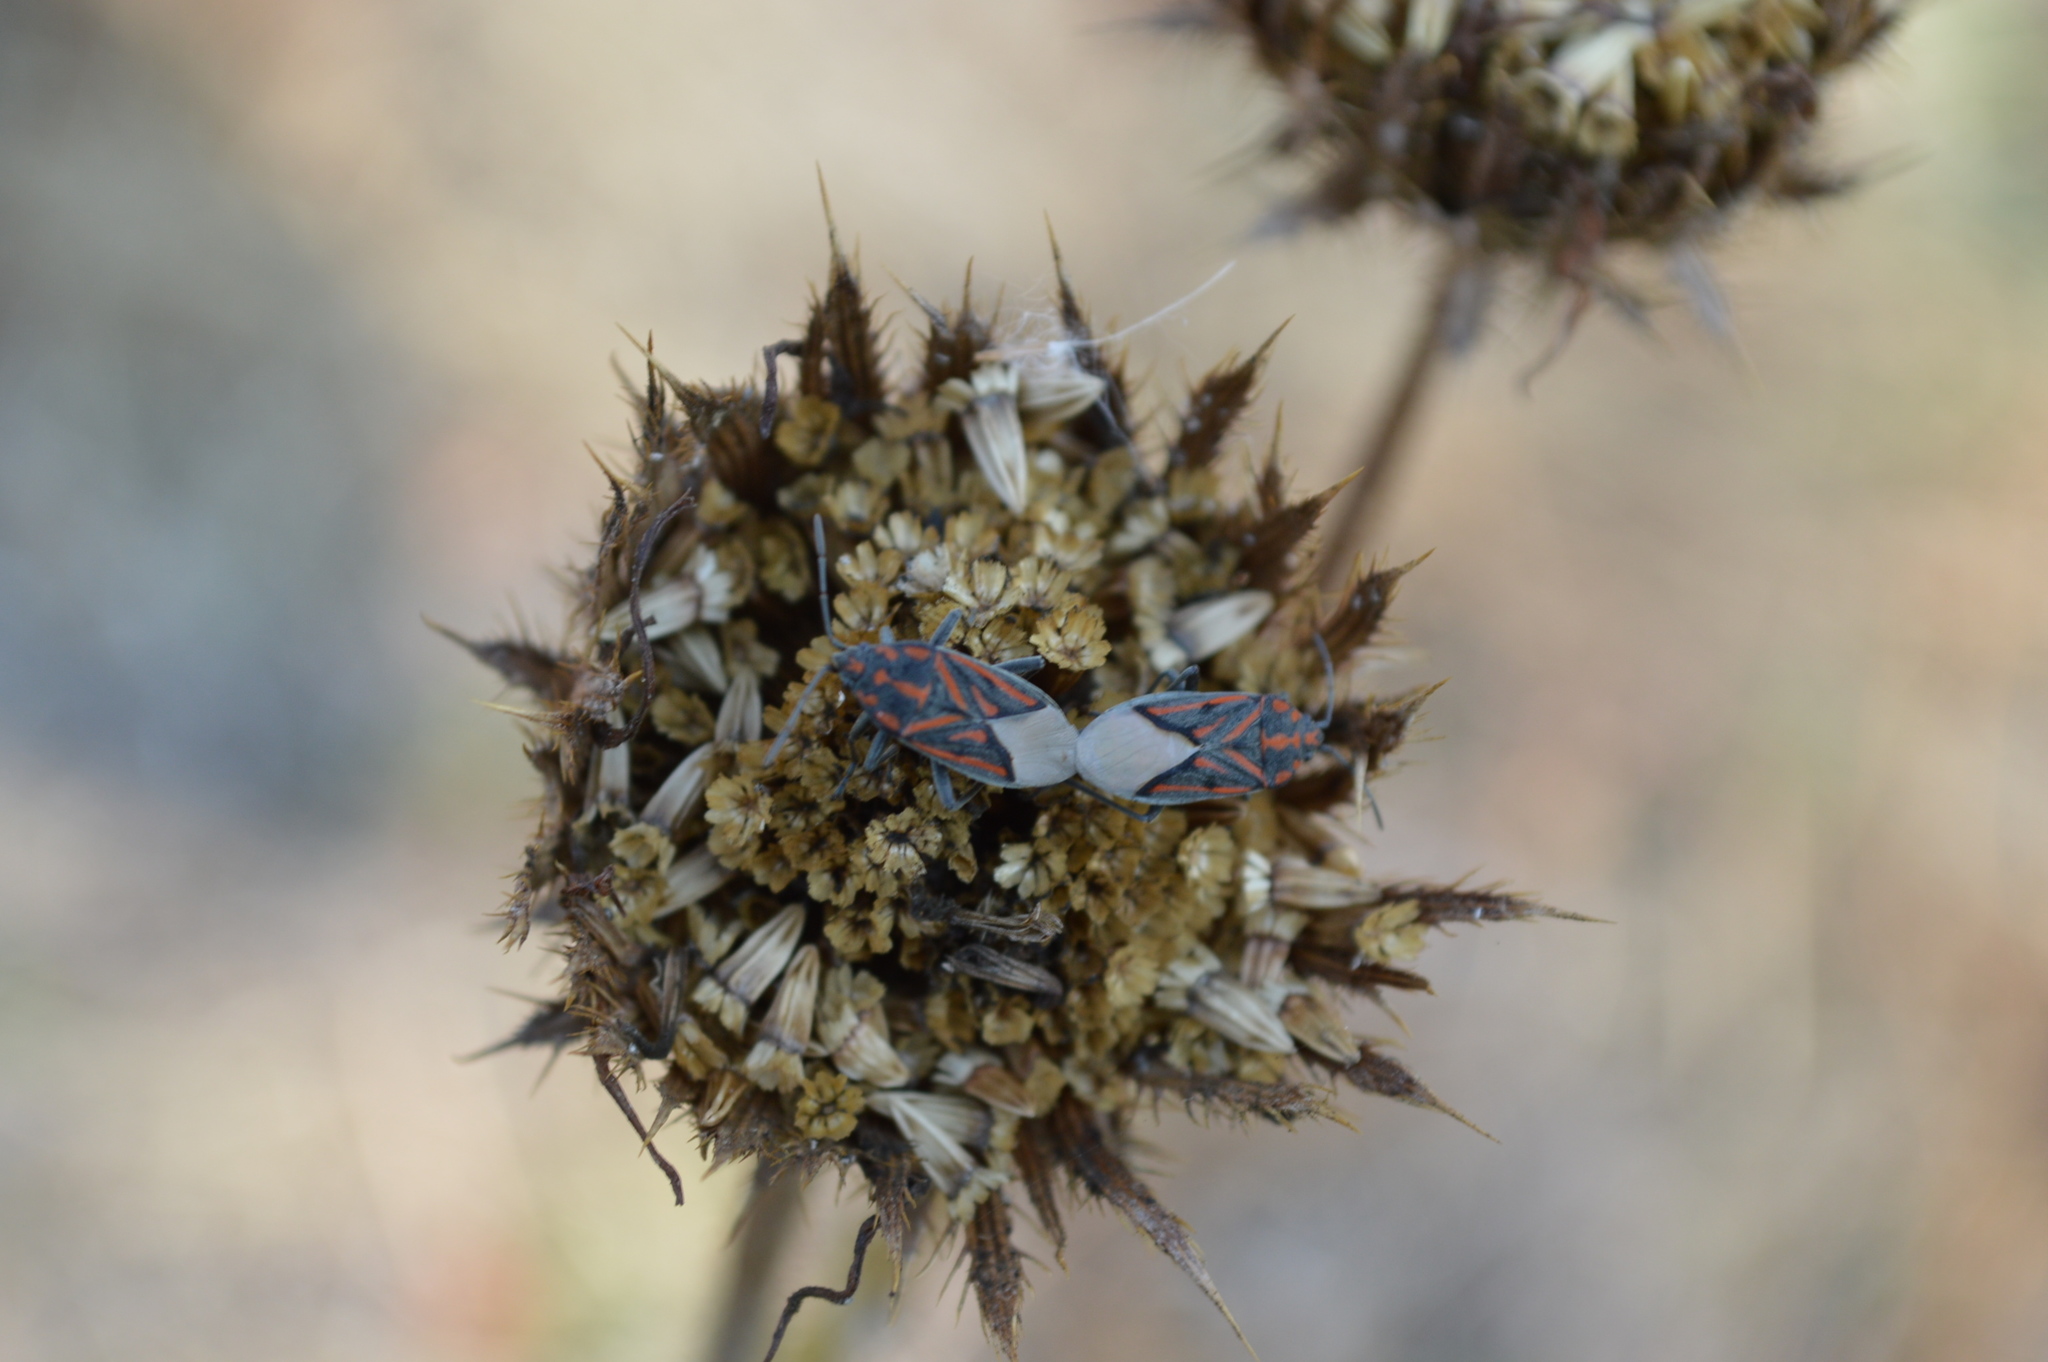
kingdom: Animalia
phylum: Arthropoda
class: Insecta
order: Hemiptera
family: Lygaeidae
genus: Spilostethus
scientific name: Spilostethus lemniscatus
